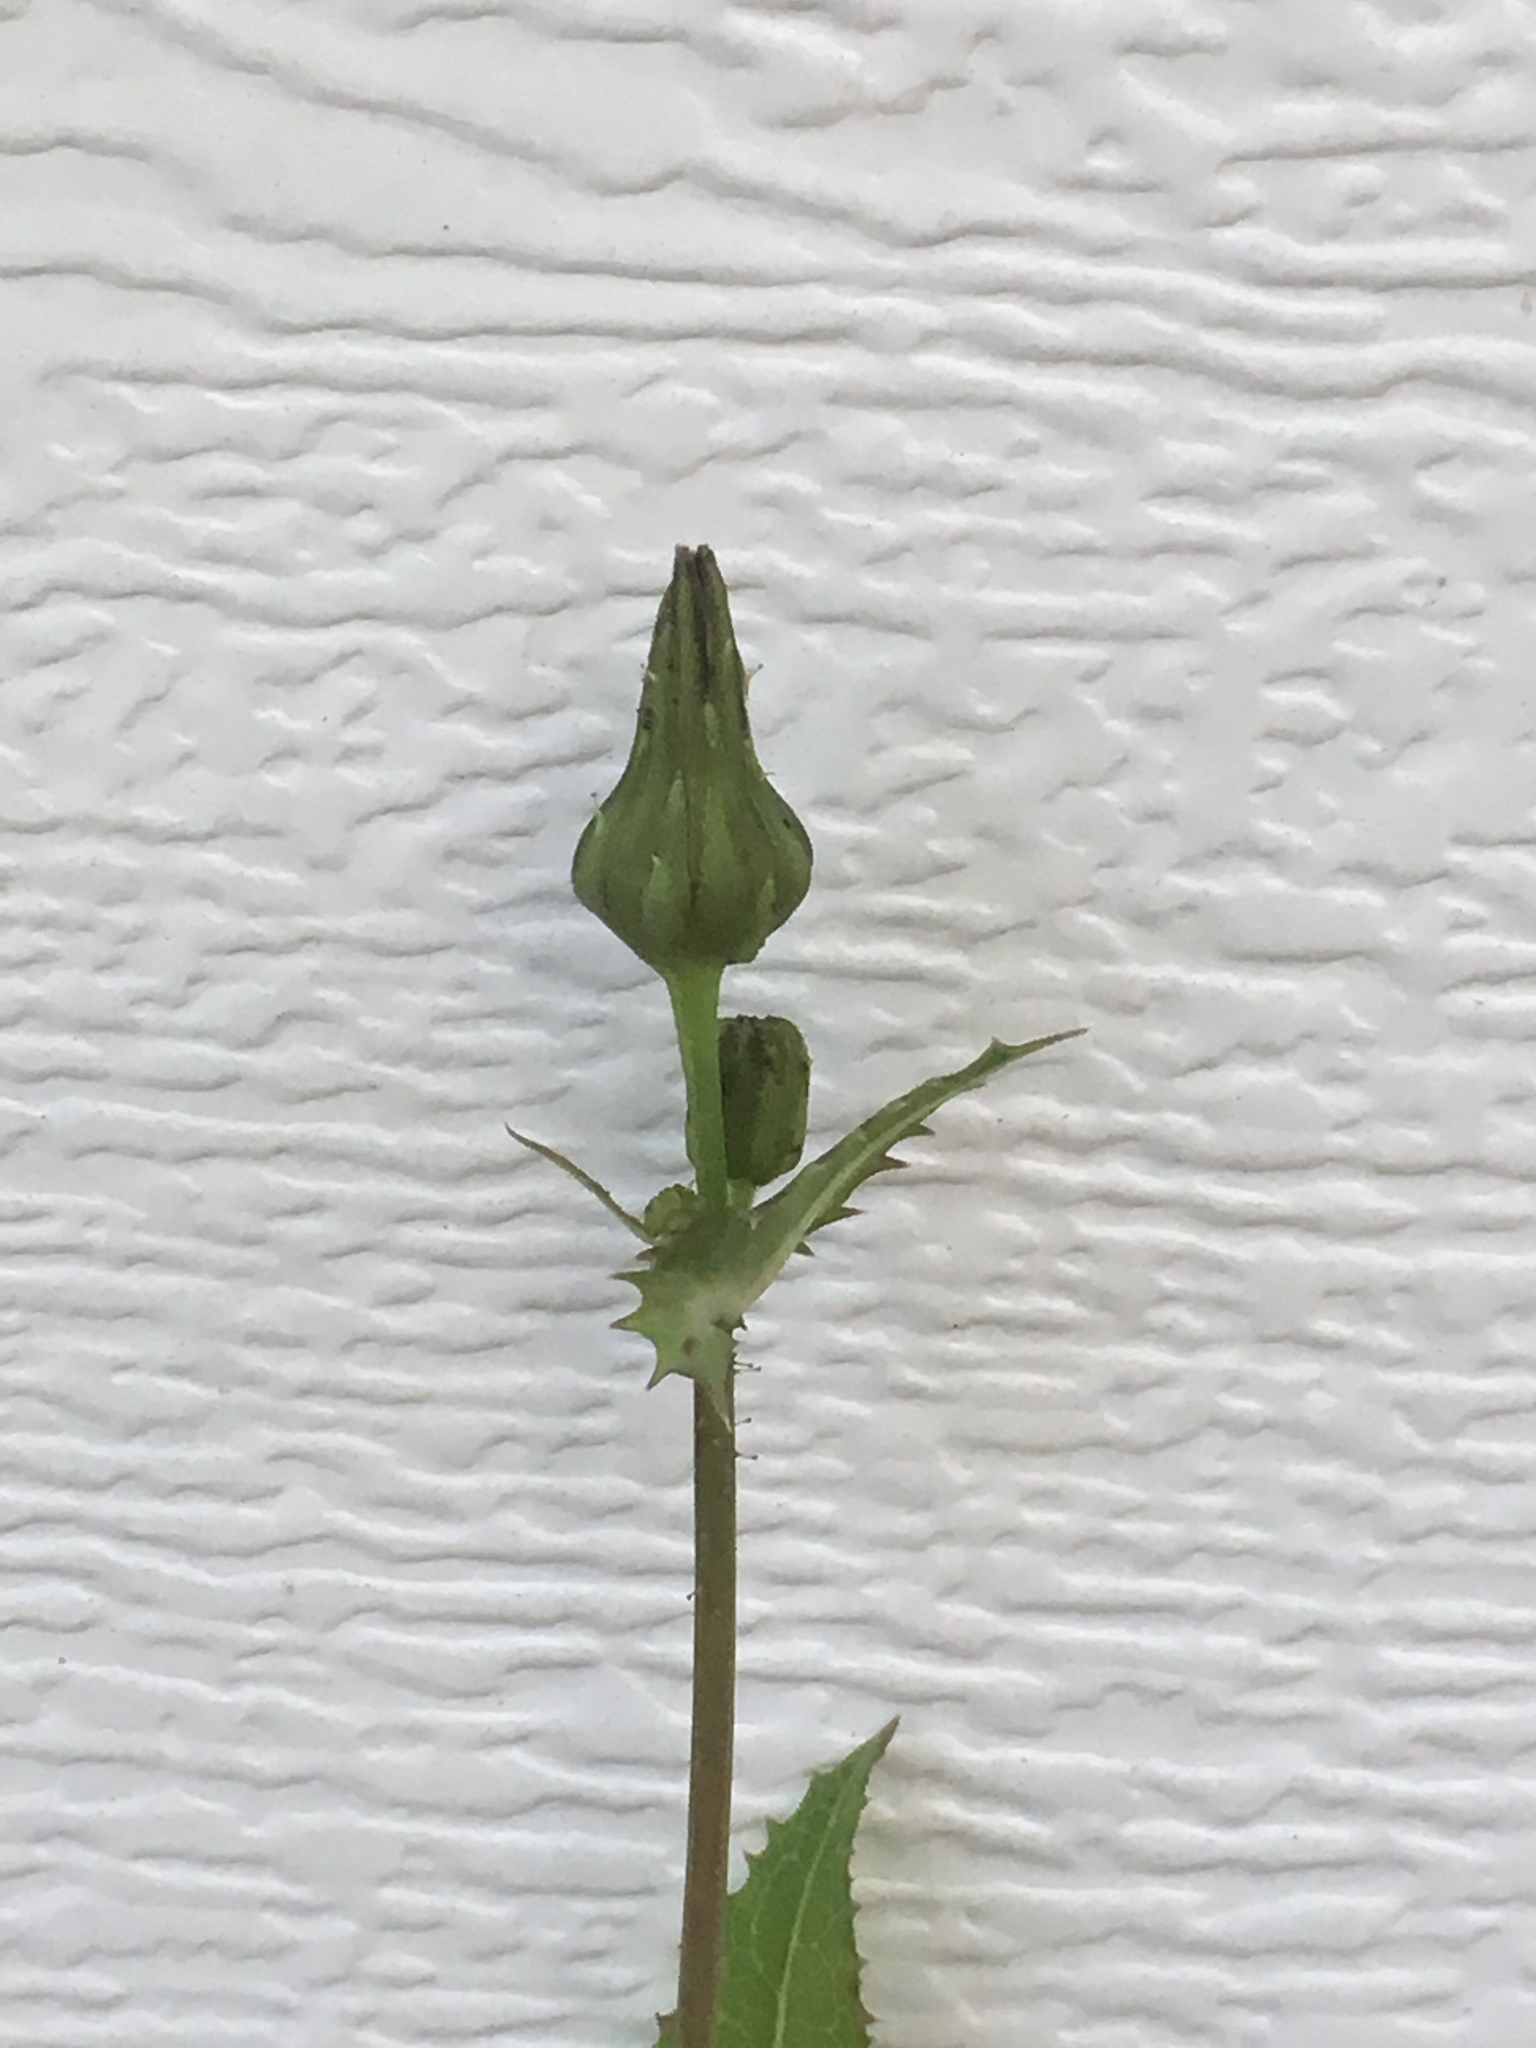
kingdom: Plantae
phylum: Tracheophyta
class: Magnoliopsida
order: Asterales
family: Asteraceae
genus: Sonchus
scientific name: Sonchus asper
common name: Prickly sow-thistle
